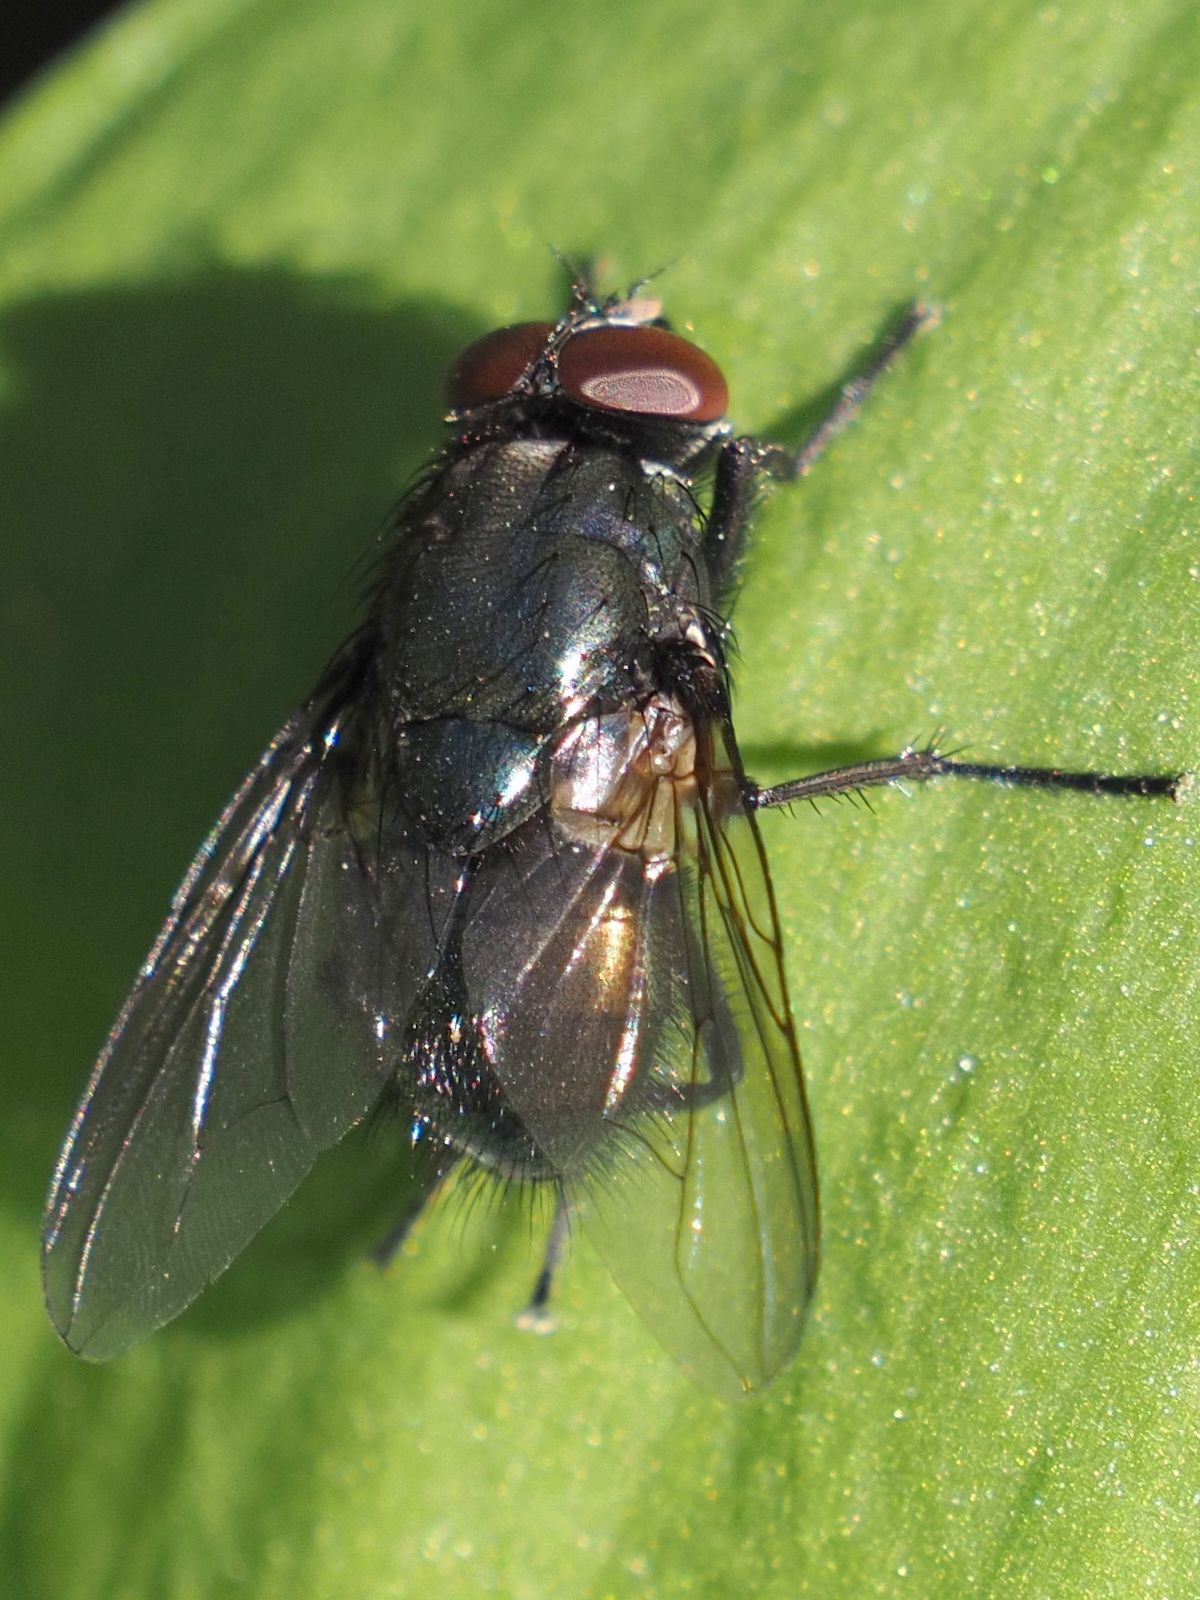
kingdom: Animalia
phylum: Arthropoda
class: Insecta
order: Diptera
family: Muscidae
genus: Dasyphora
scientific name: Dasyphora cyanella
